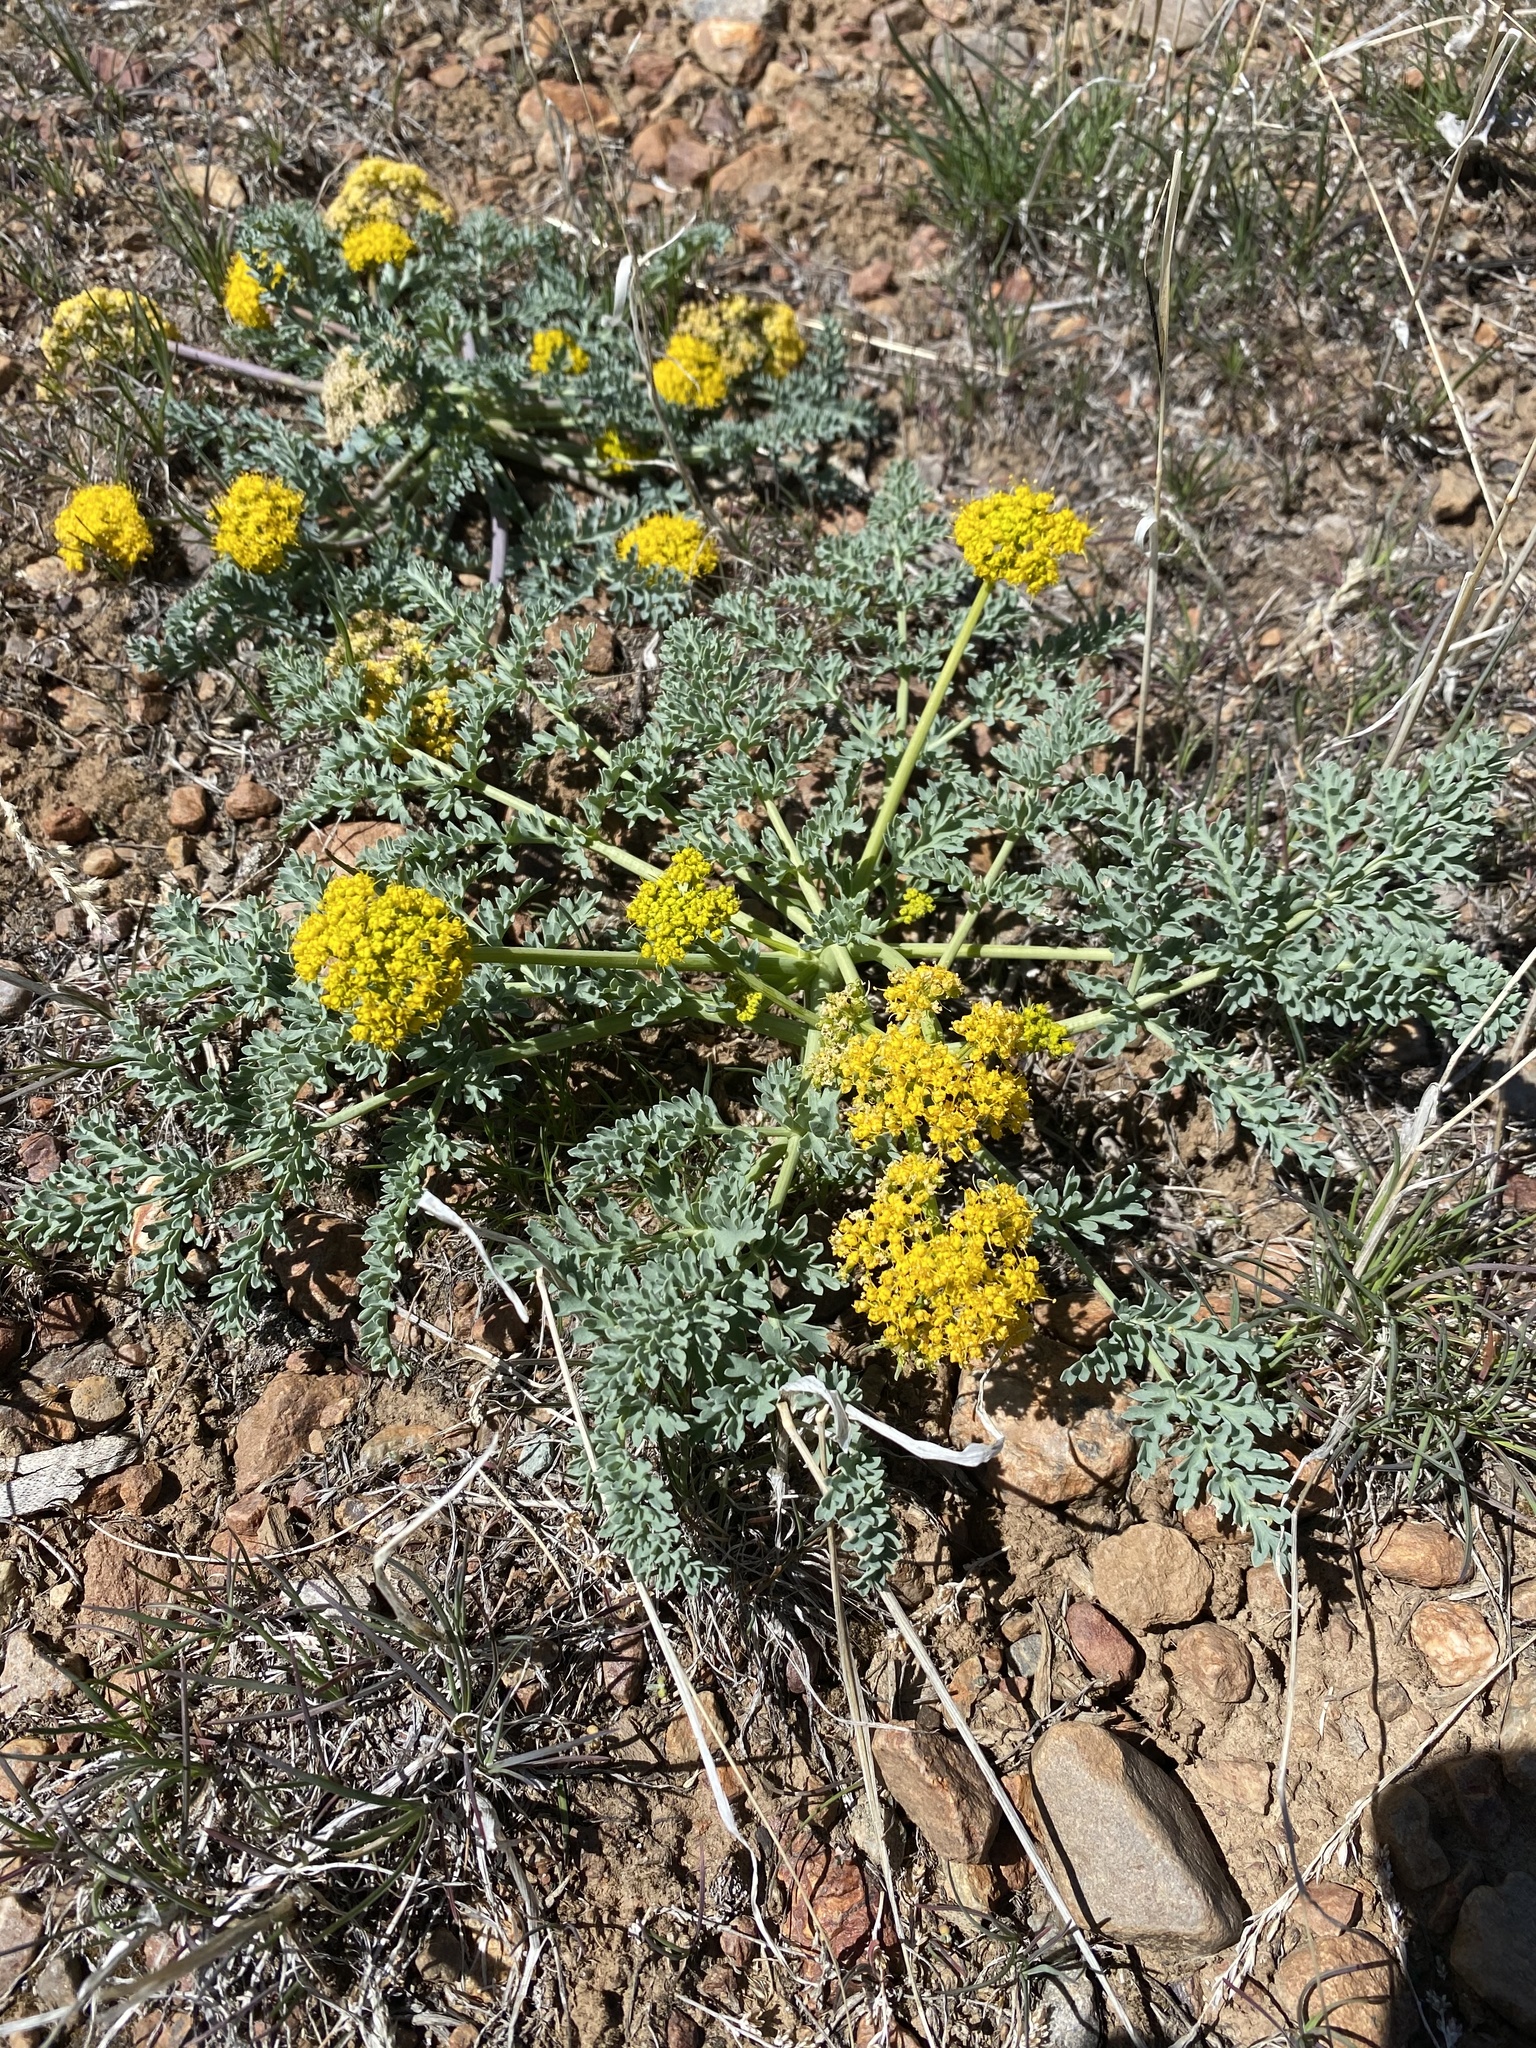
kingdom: Plantae
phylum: Tracheophyta
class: Magnoliopsida
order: Apiales
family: Apiaceae
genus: Aulospermum
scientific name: Aulospermum glaucum
